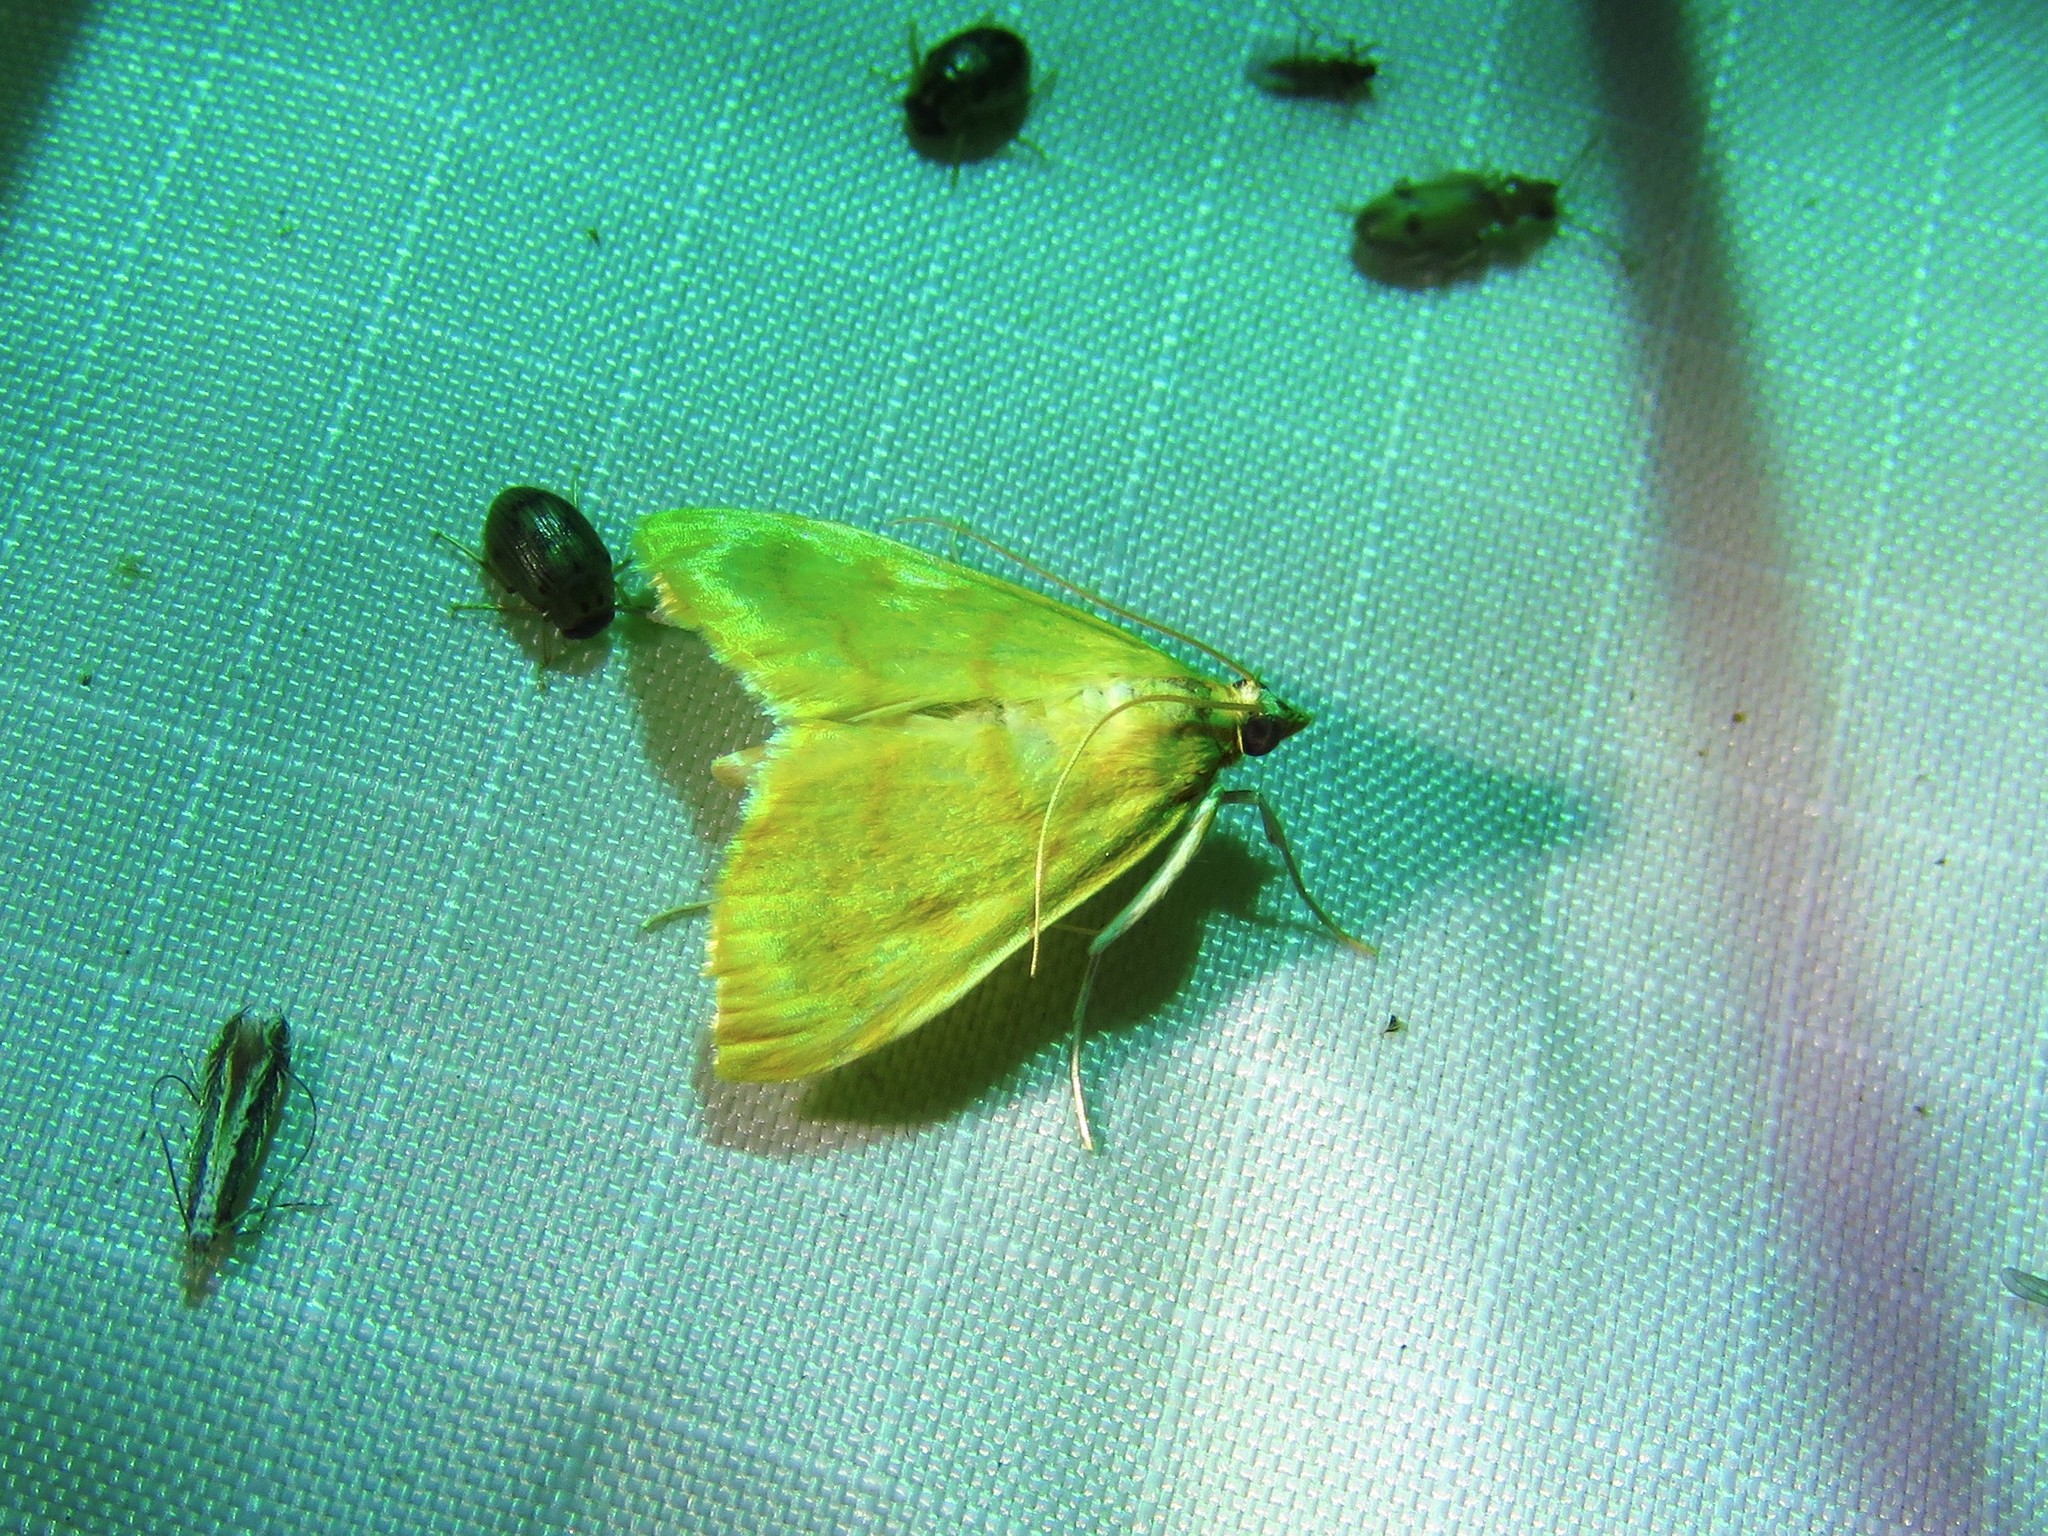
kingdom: Animalia
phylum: Arthropoda
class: Insecta
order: Lepidoptera
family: Crambidae
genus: Helvibotys
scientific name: Helvibotys helvialis
